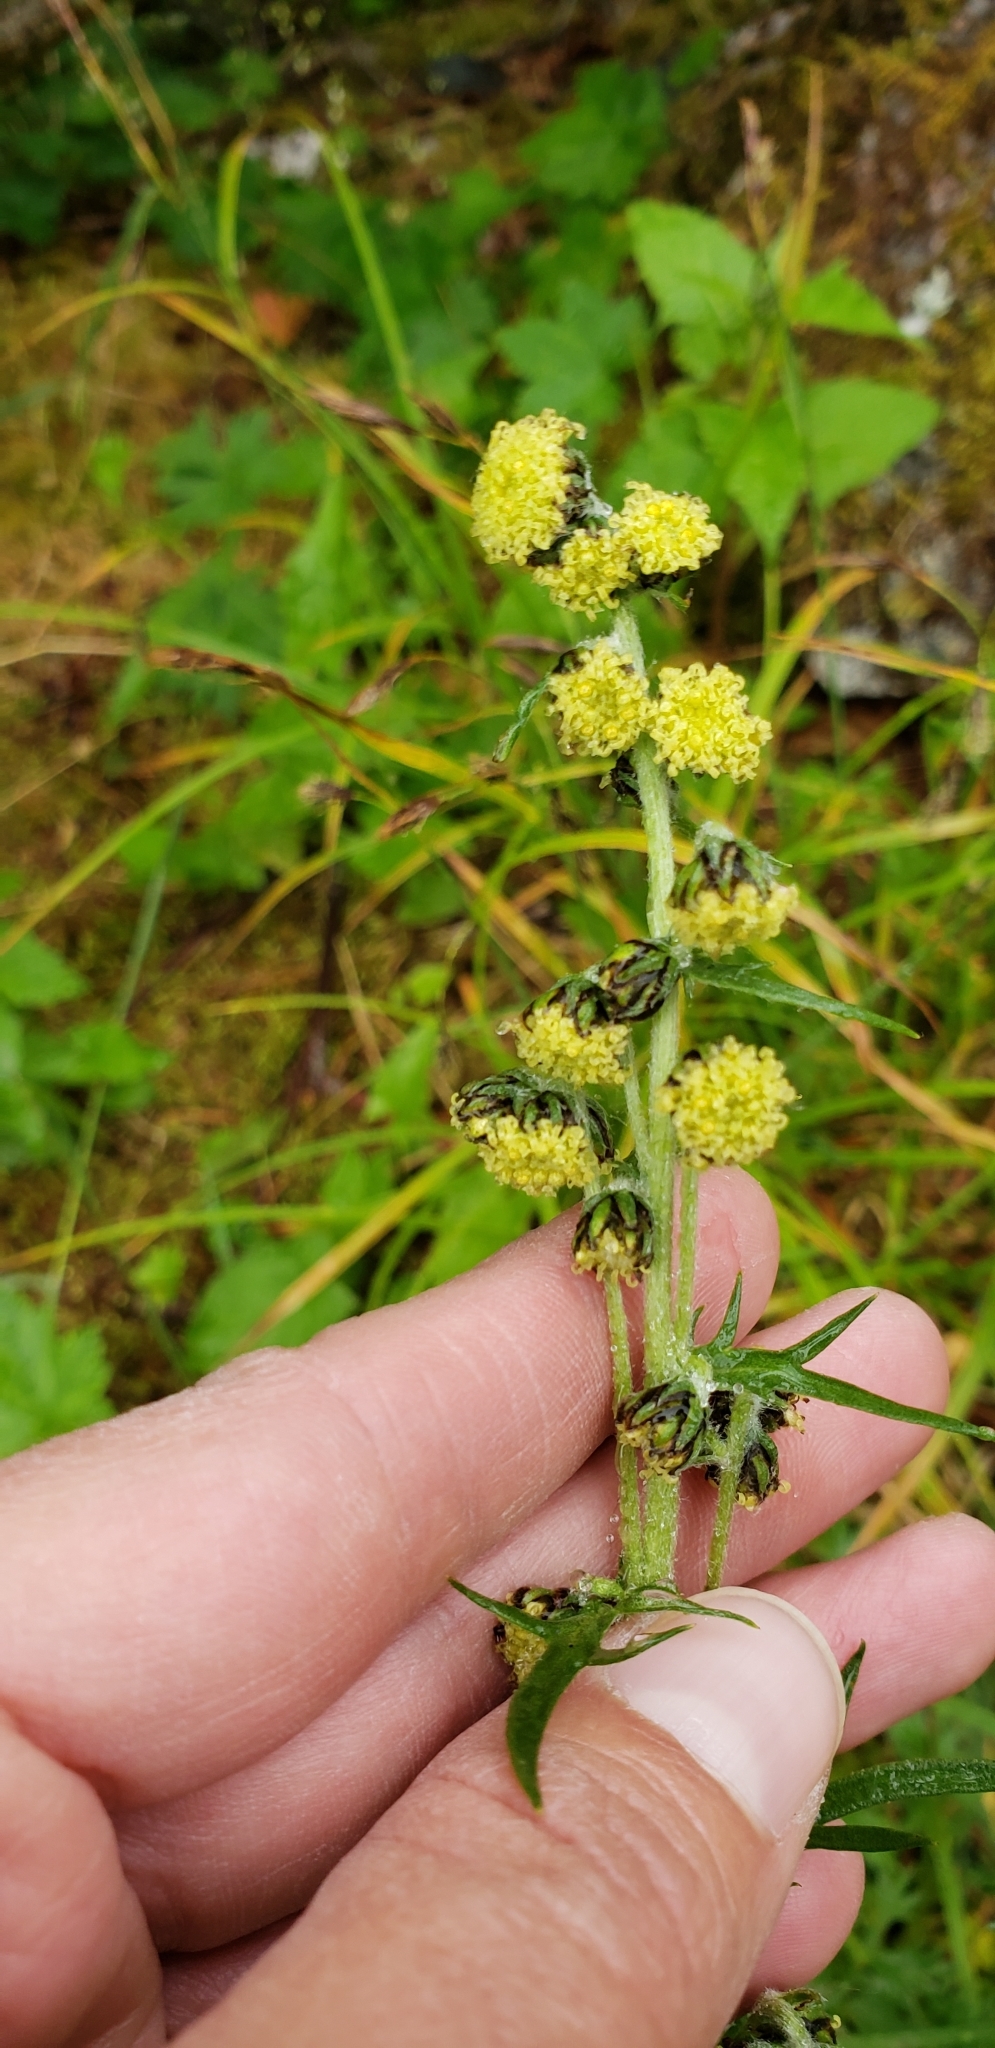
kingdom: Plantae
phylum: Tracheophyta
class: Magnoliopsida
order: Asterales
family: Asteraceae
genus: Artemisia
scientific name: Artemisia norvegica
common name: Norwegian mugwort
